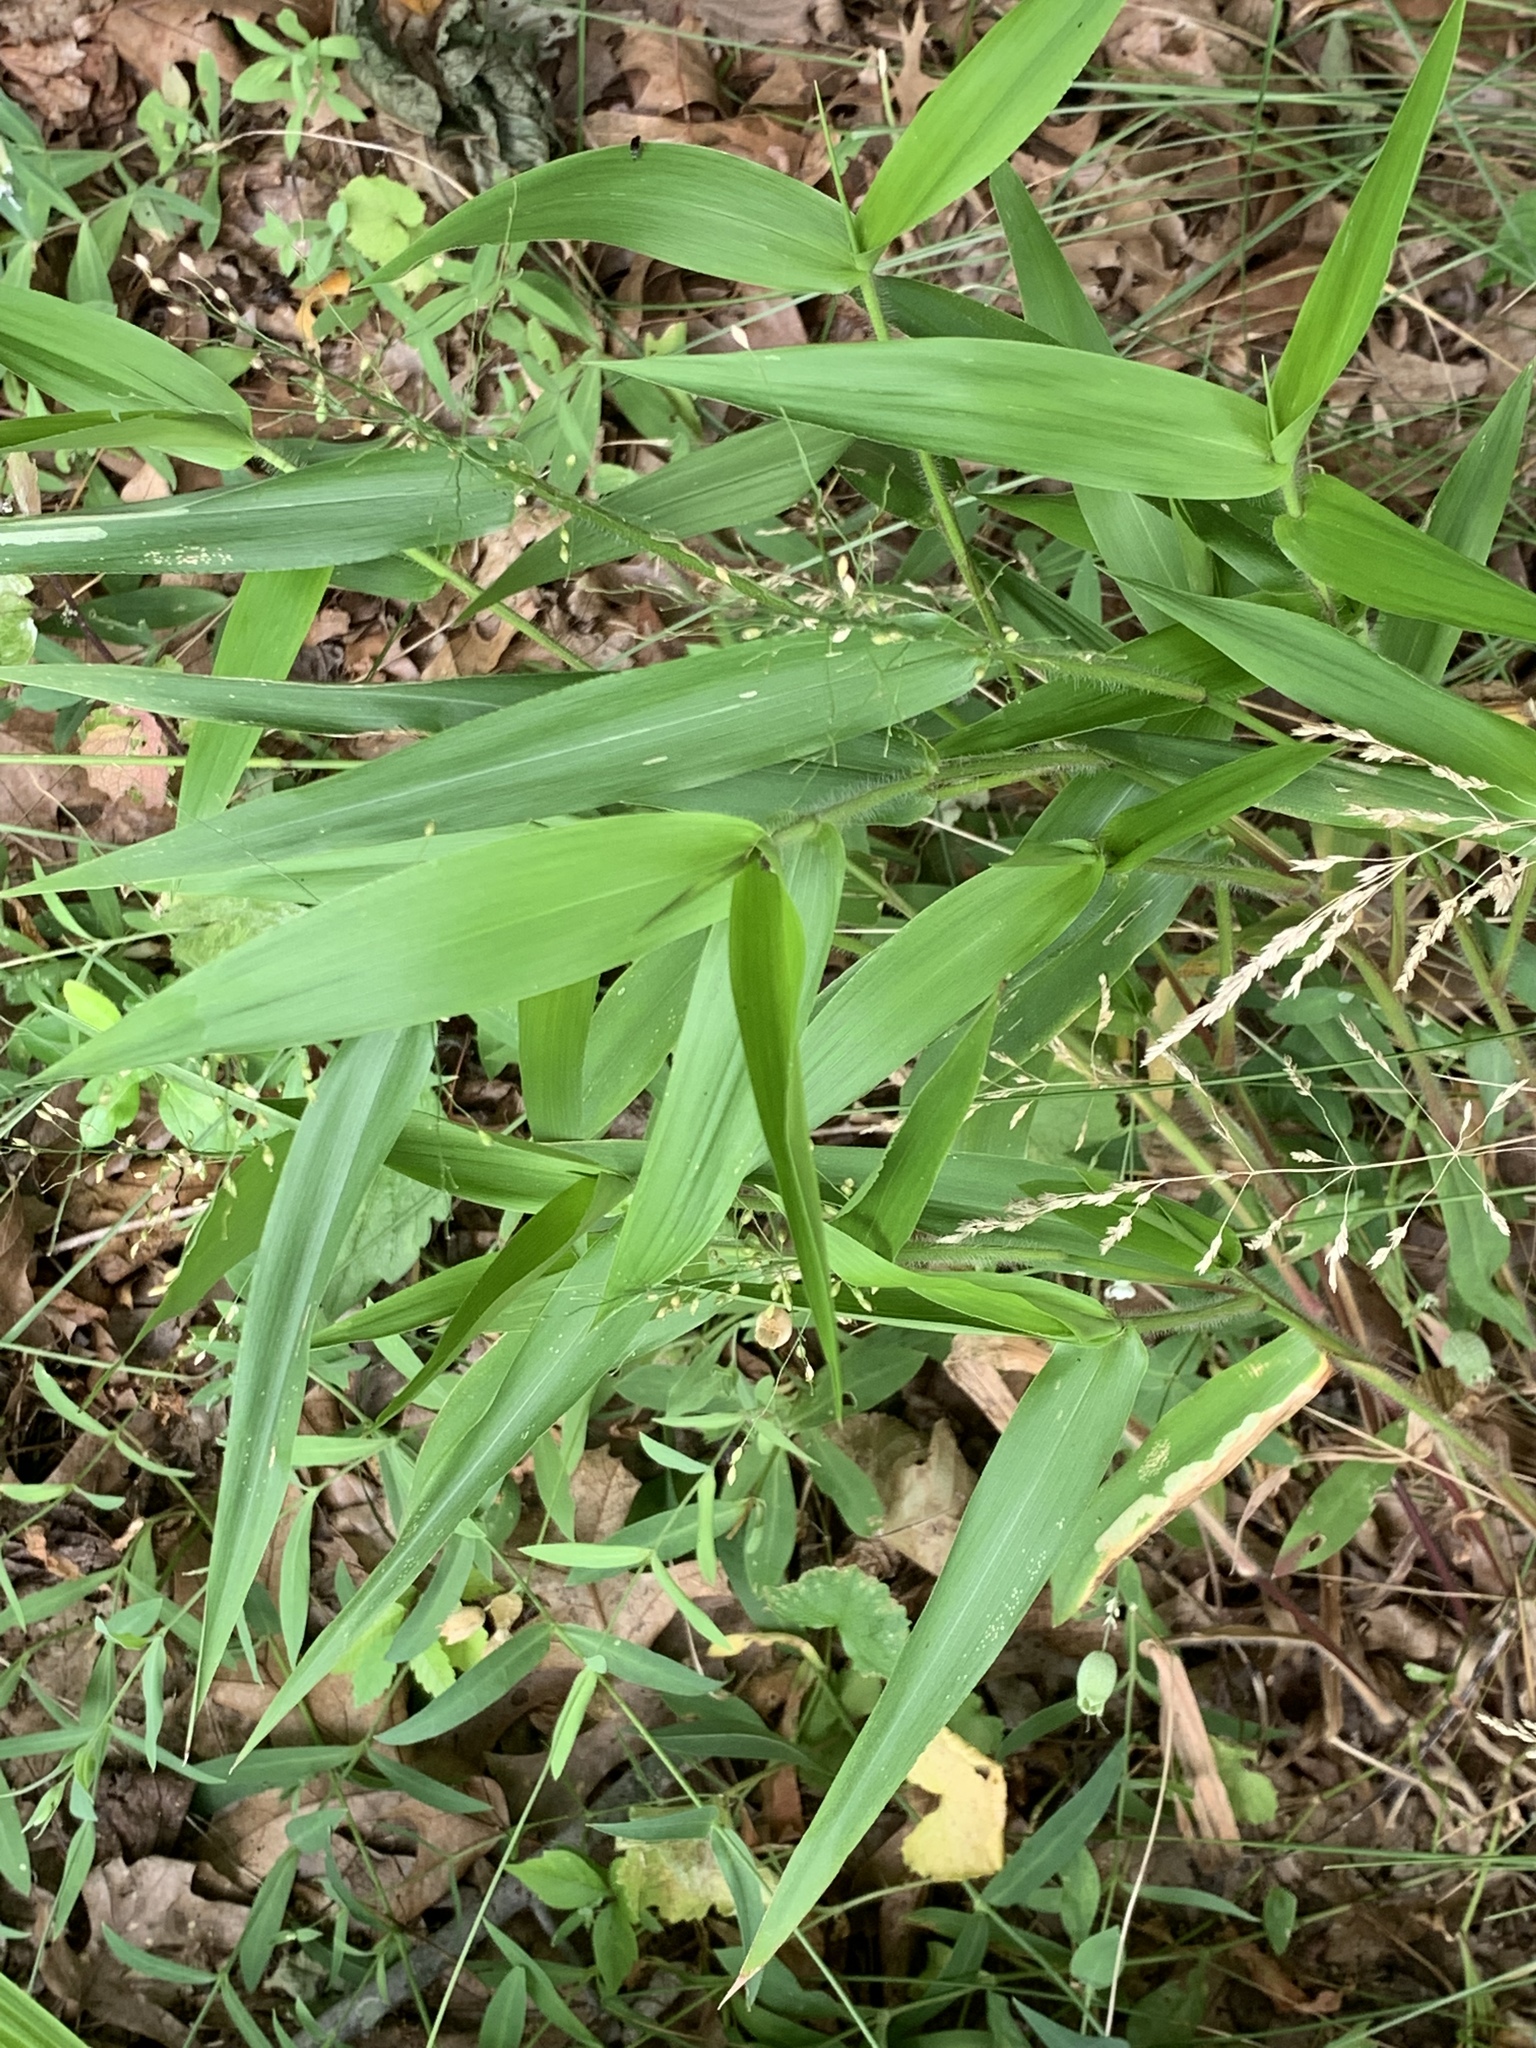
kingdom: Plantae
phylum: Tracheophyta
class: Liliopsida
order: Poales
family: Poaceae
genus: Dichanthelium
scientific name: Dichanthelium clandestinum
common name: Deer-tongue grass
